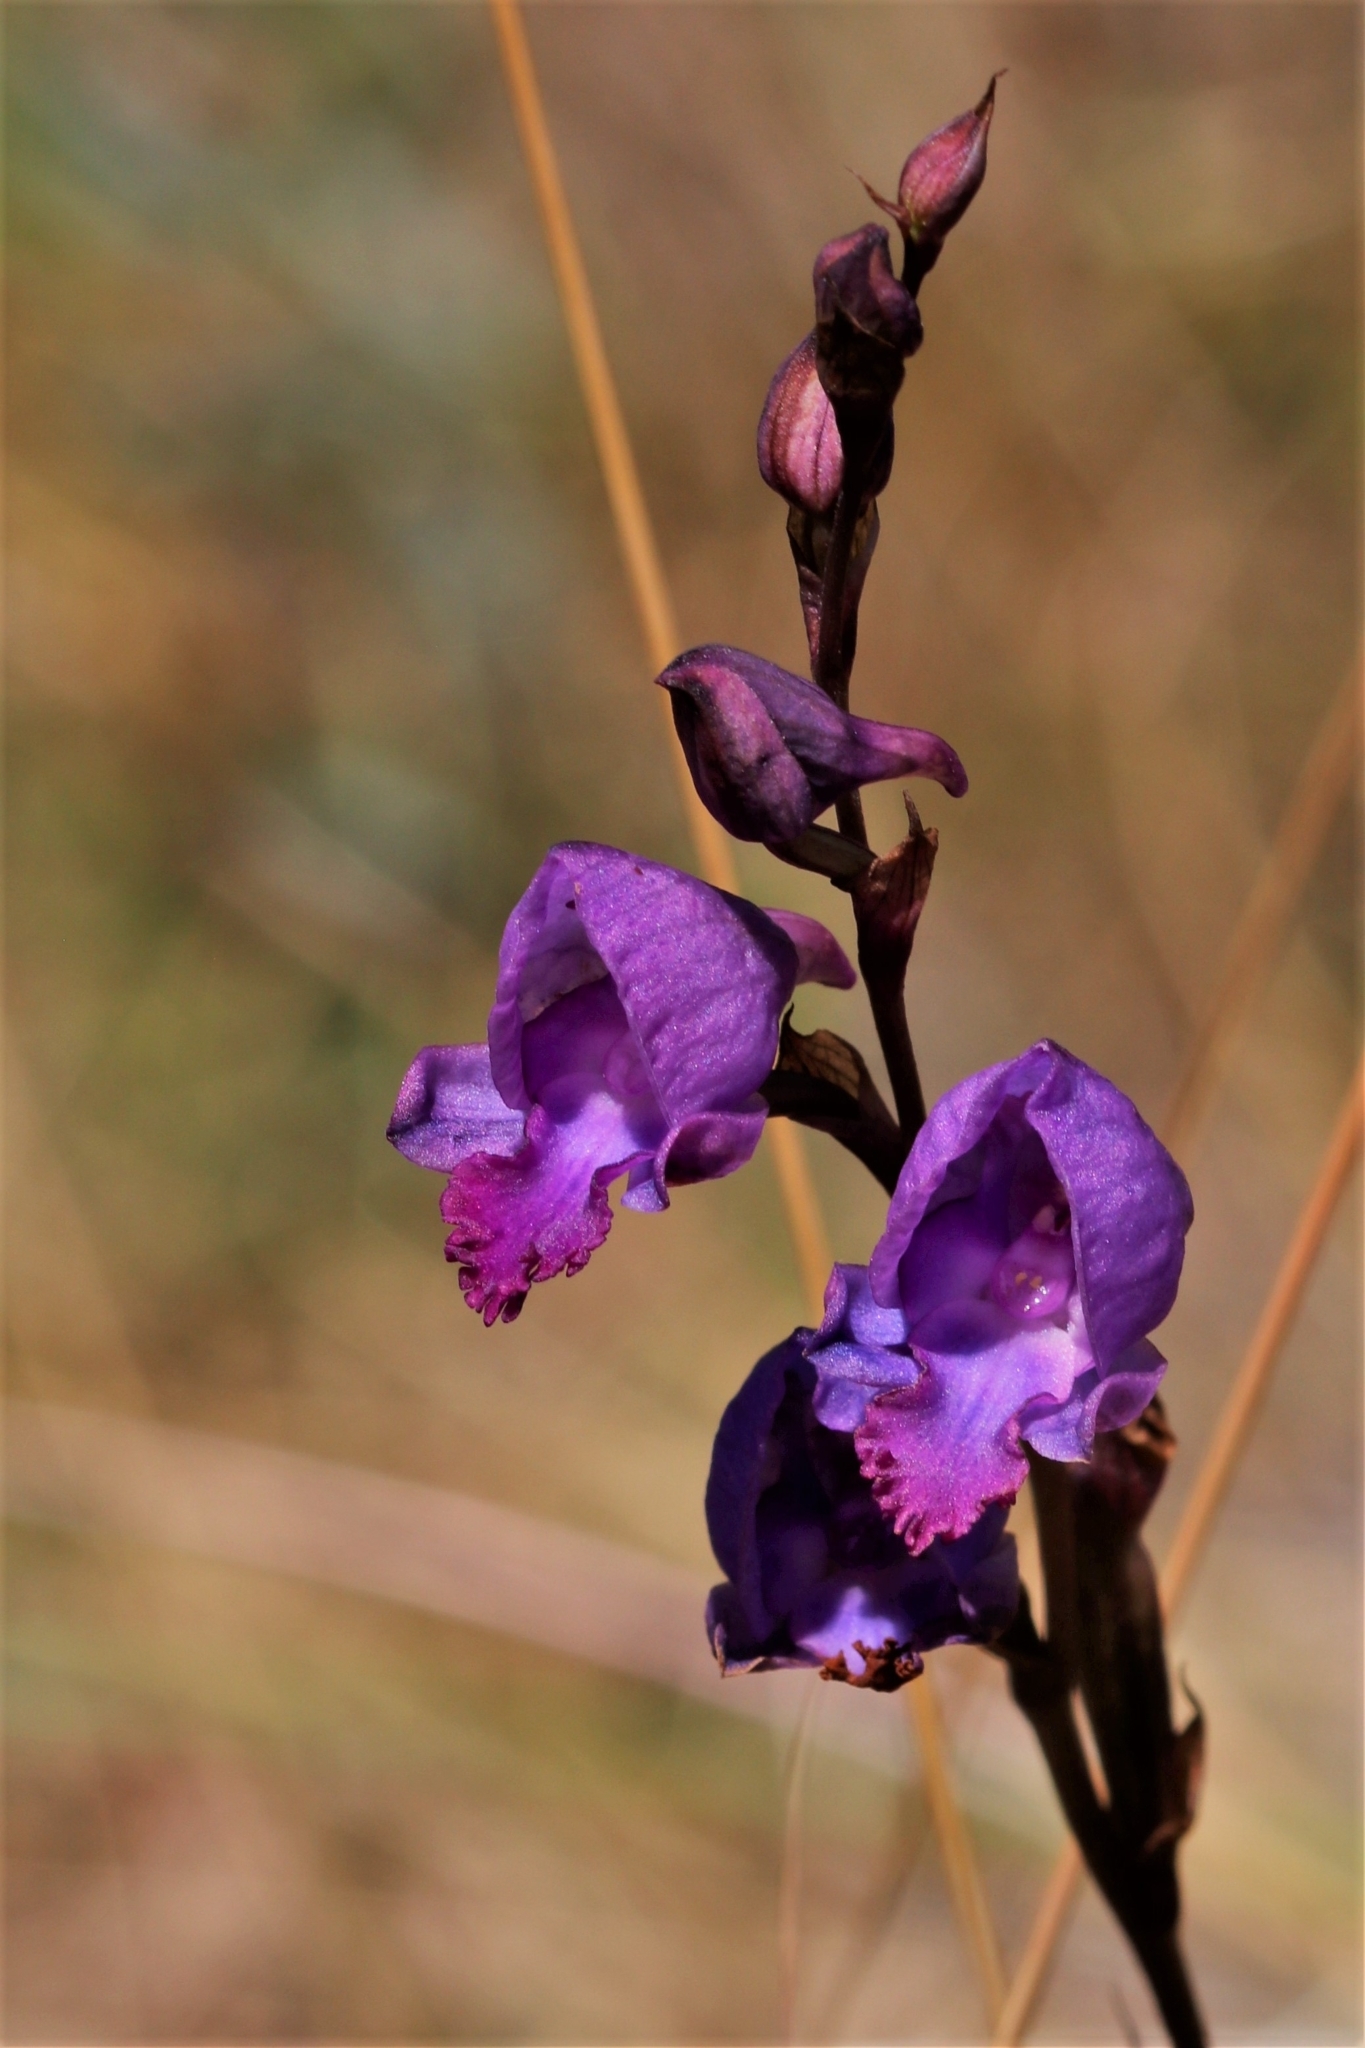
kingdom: Plantae
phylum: Tracheophyta
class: Liliopsida
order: Asparagales
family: Orchidaceae
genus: Disa
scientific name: Disa hians
